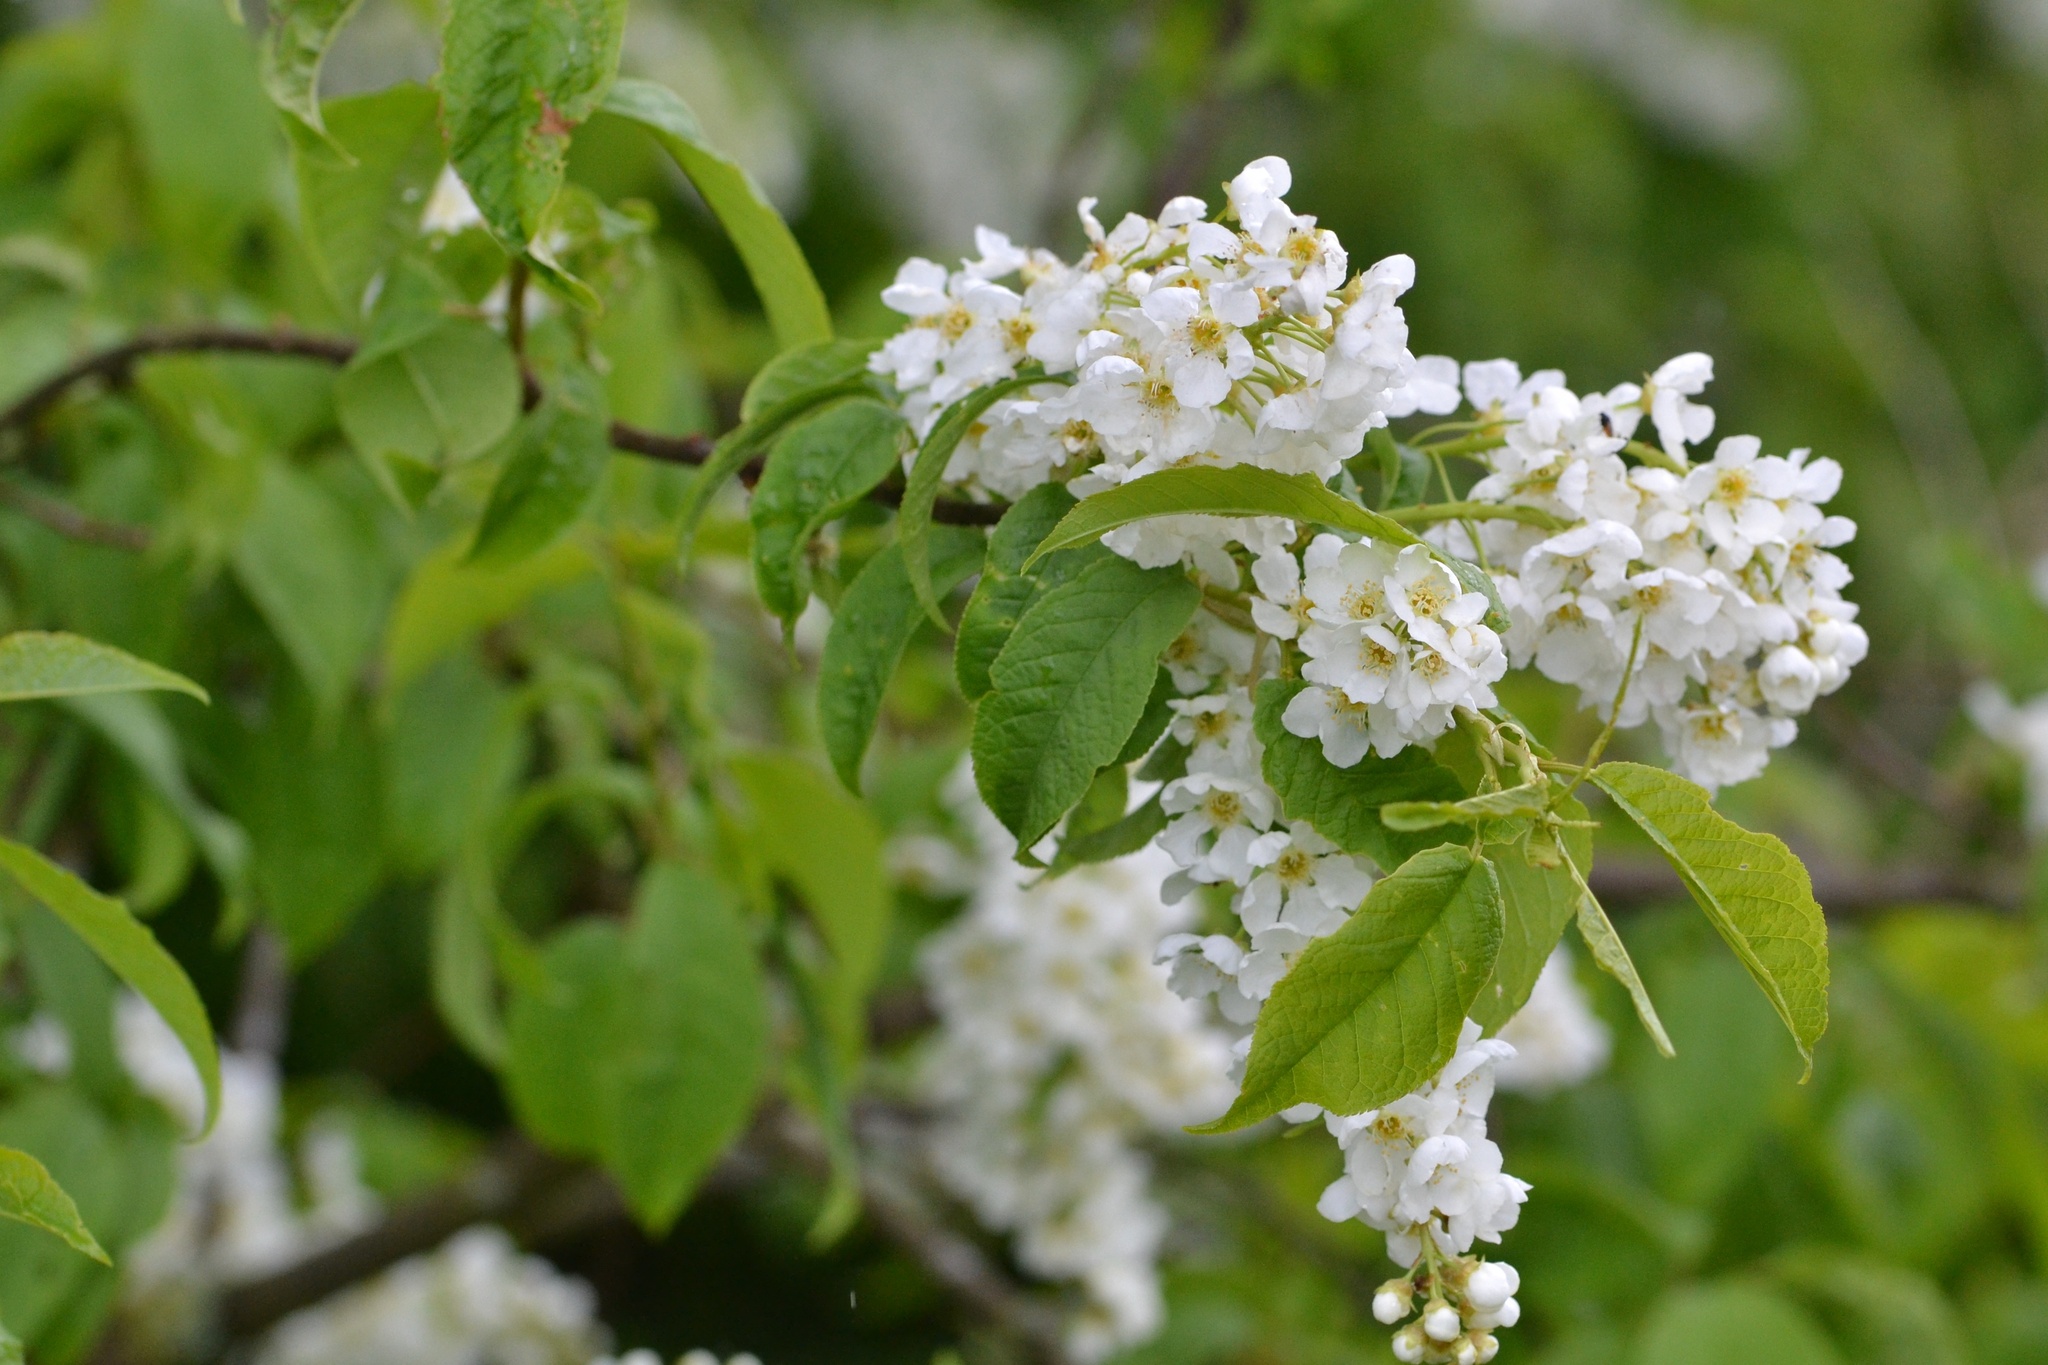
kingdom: Plantae
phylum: Tracheophyta
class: Magnoliopsida
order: Rosales
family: Rosaceae
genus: Prunus
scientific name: Prunus padus
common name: Bird cherry
